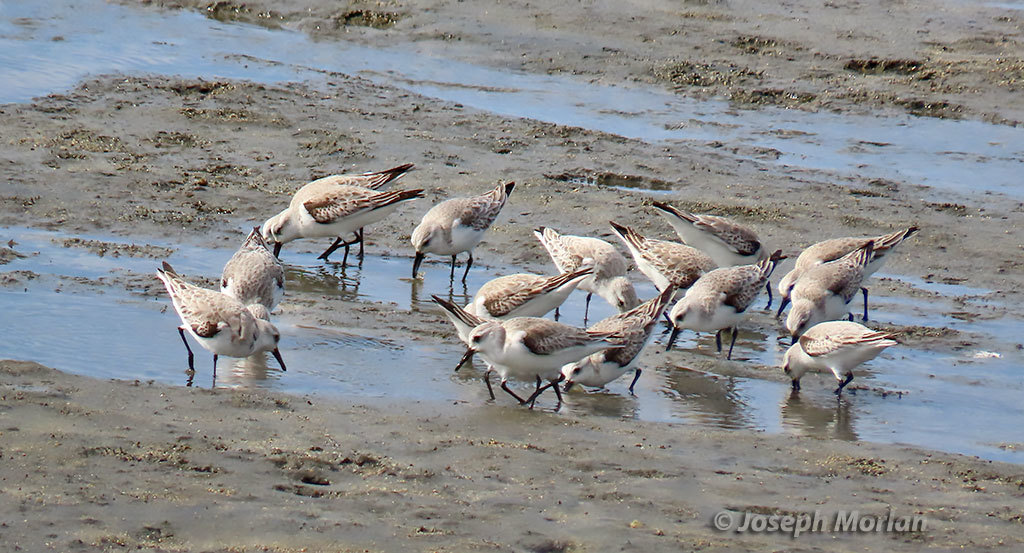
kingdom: Animalia
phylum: Chordata
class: Aves
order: Charadriiformes
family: Scolopacidae
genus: Calidris
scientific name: Calidris alba
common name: Sanderling
